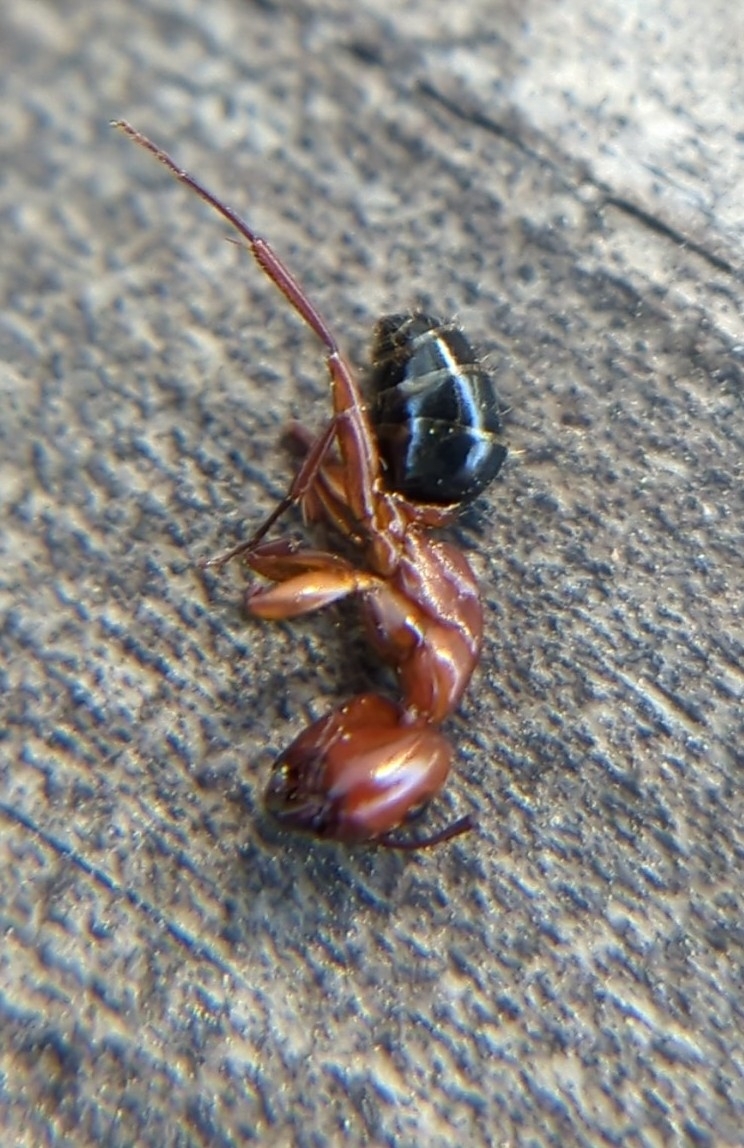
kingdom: Animalia
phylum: Arthropoda
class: Insecta
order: Hymenoptera
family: Formicidae
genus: Camponotus
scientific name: Camponotus decipiens
